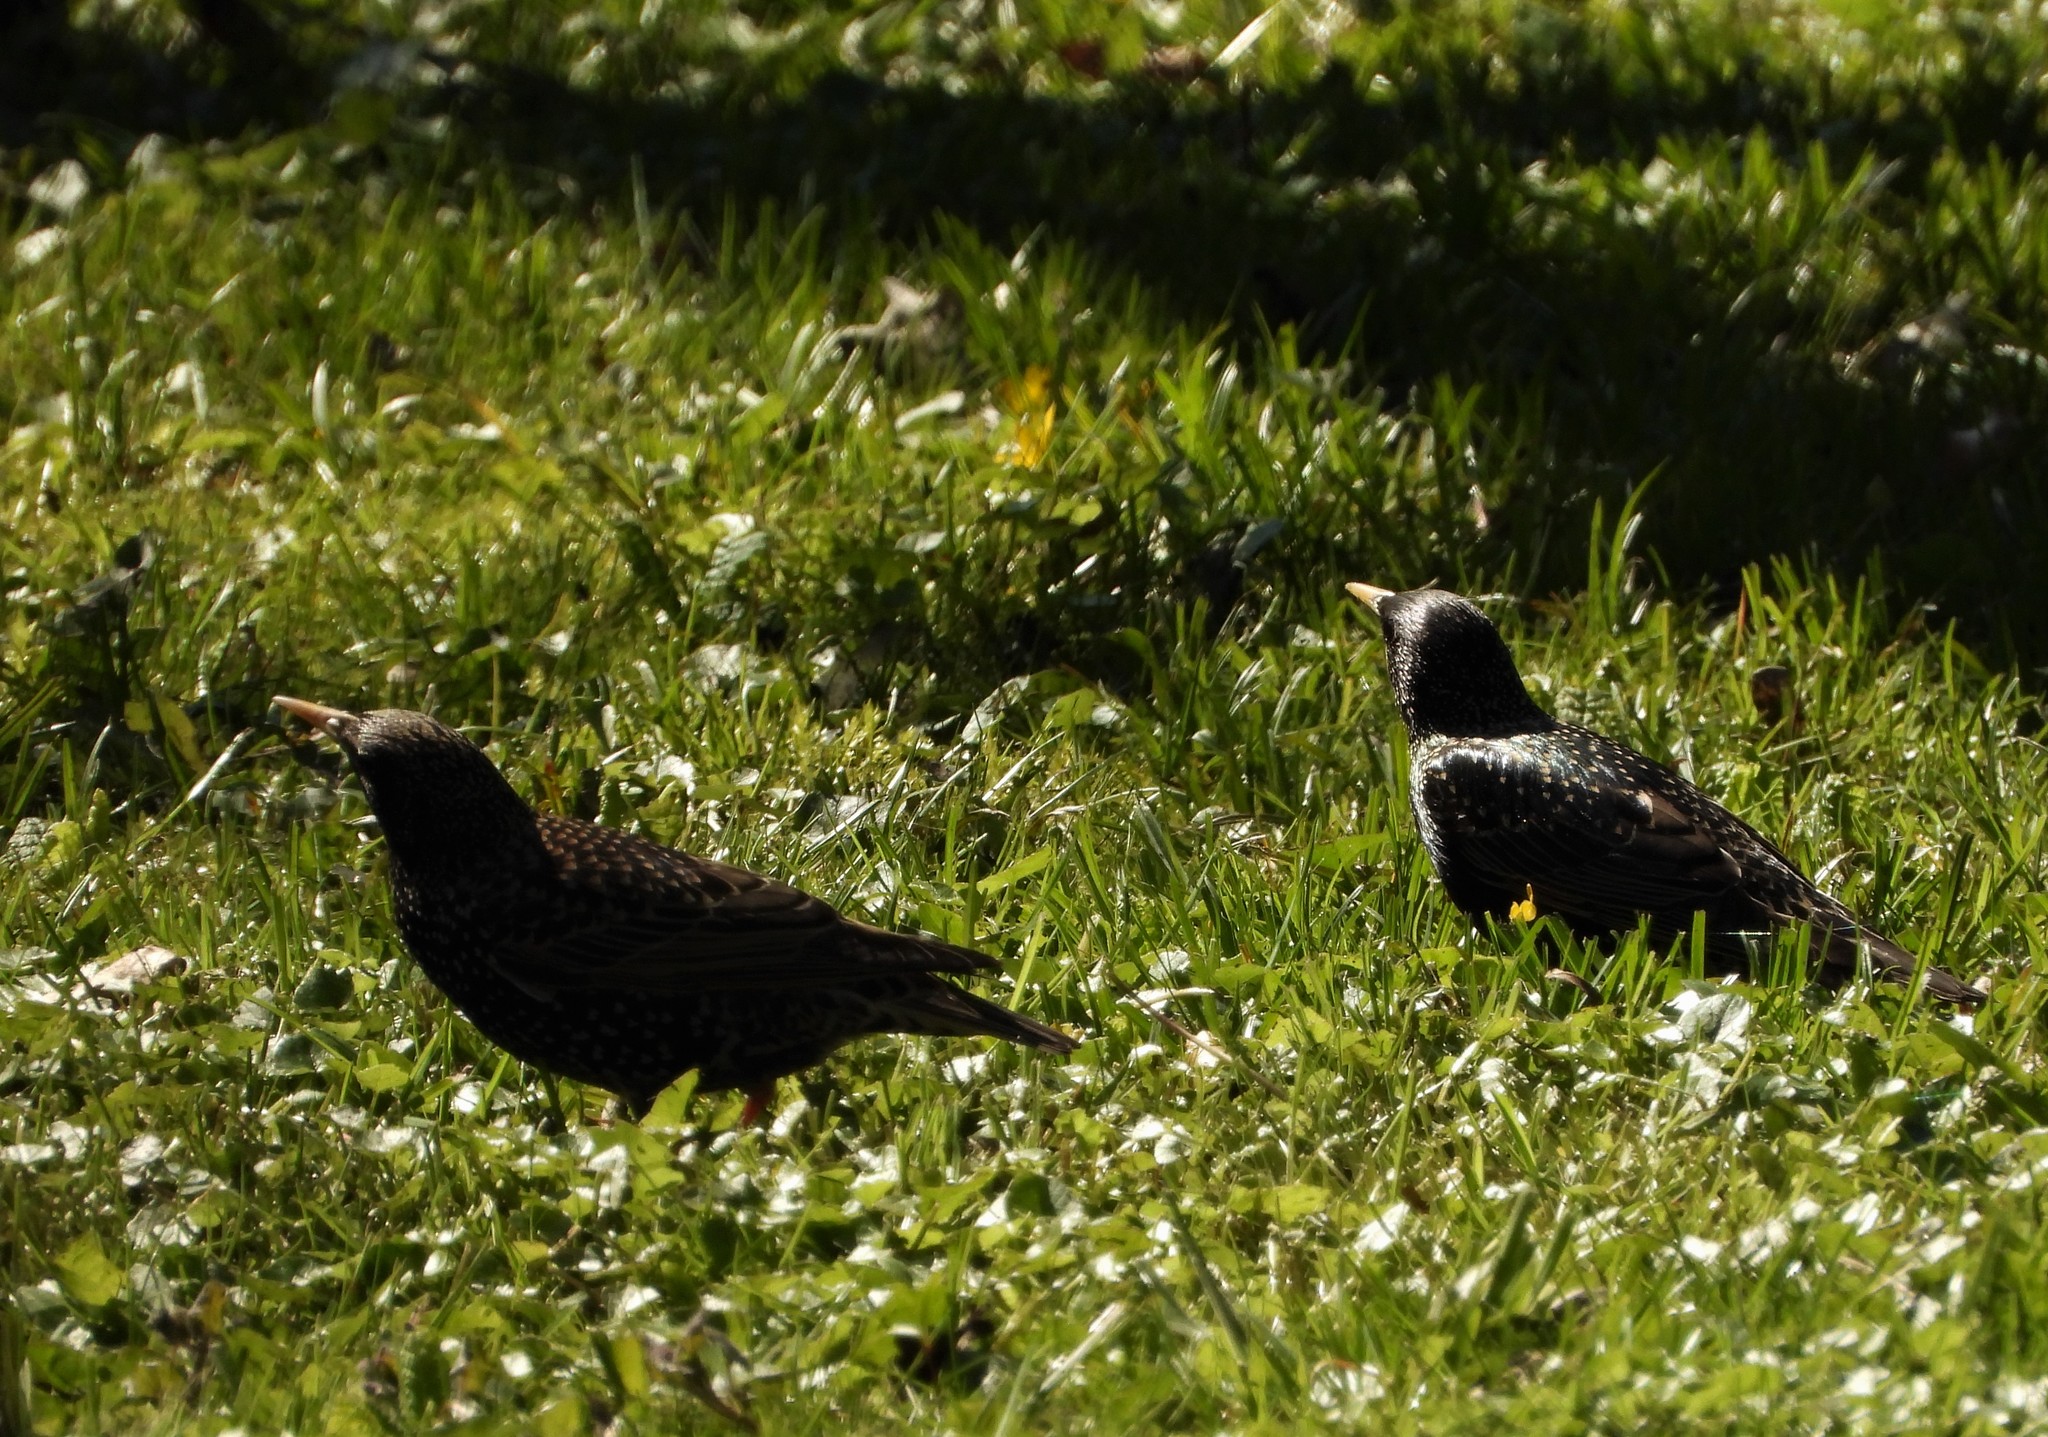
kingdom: Animalia
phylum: Chordata
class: Aves
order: Passeriformes
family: Sturnidae
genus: Sturnus
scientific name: Sturnus vulgaris
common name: Common starling
